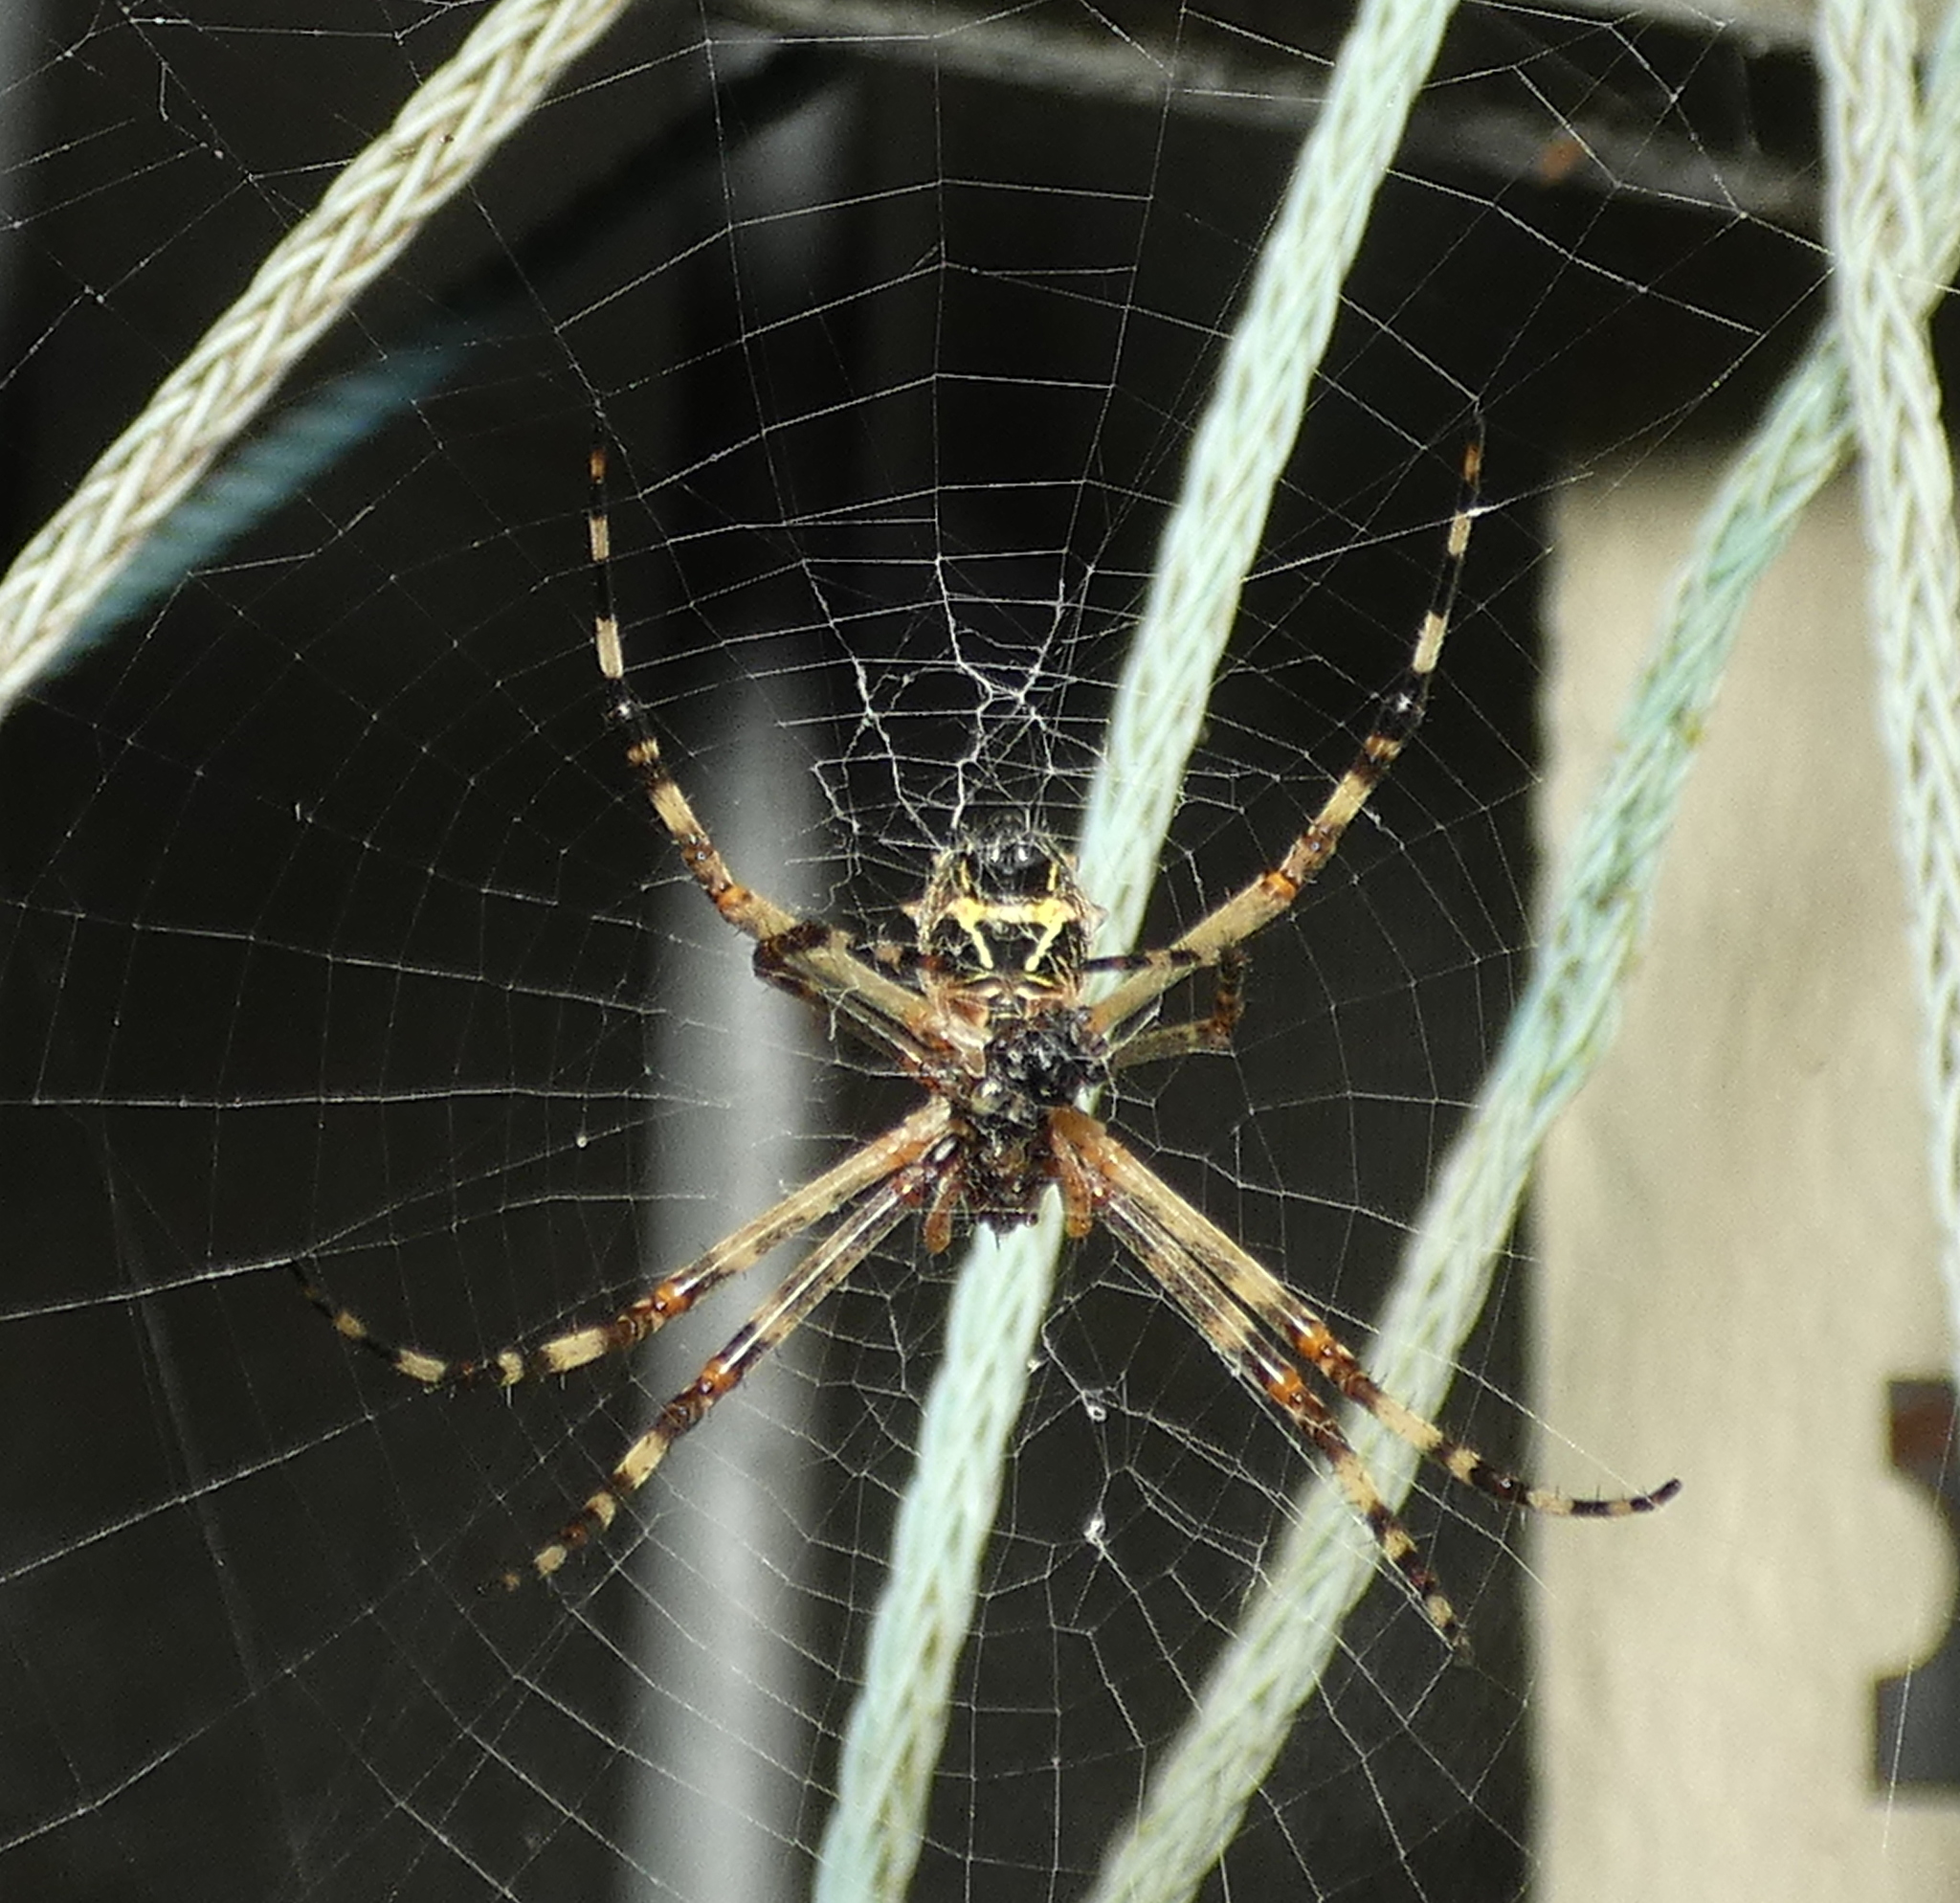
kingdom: Animalia
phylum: Arthropoda
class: Arachnida
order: Araneae
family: Araneidae
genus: Argiope
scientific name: Argiope argentata
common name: Orb weavers
